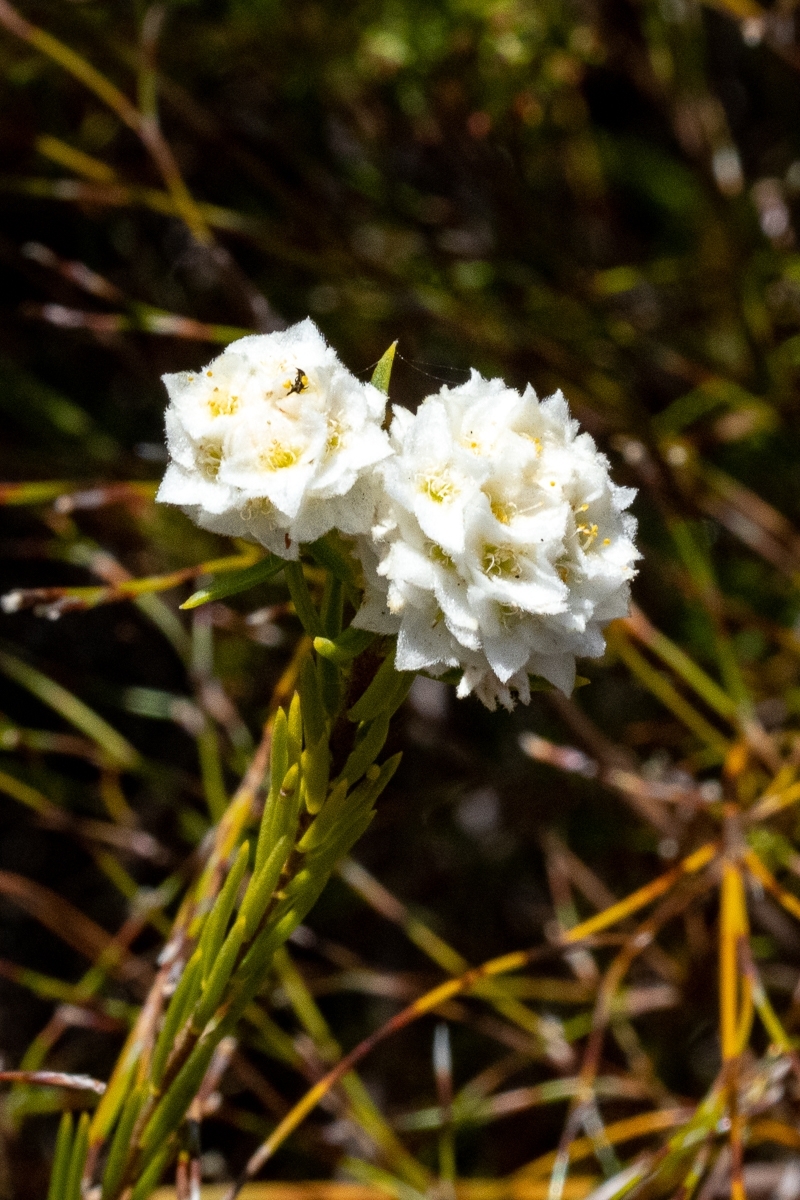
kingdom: Plantae
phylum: Tracheophyta
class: Magnoliopsida
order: Malvales
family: Thymelaeaceae
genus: Lachnaea
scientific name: Lachnaea densiflora
